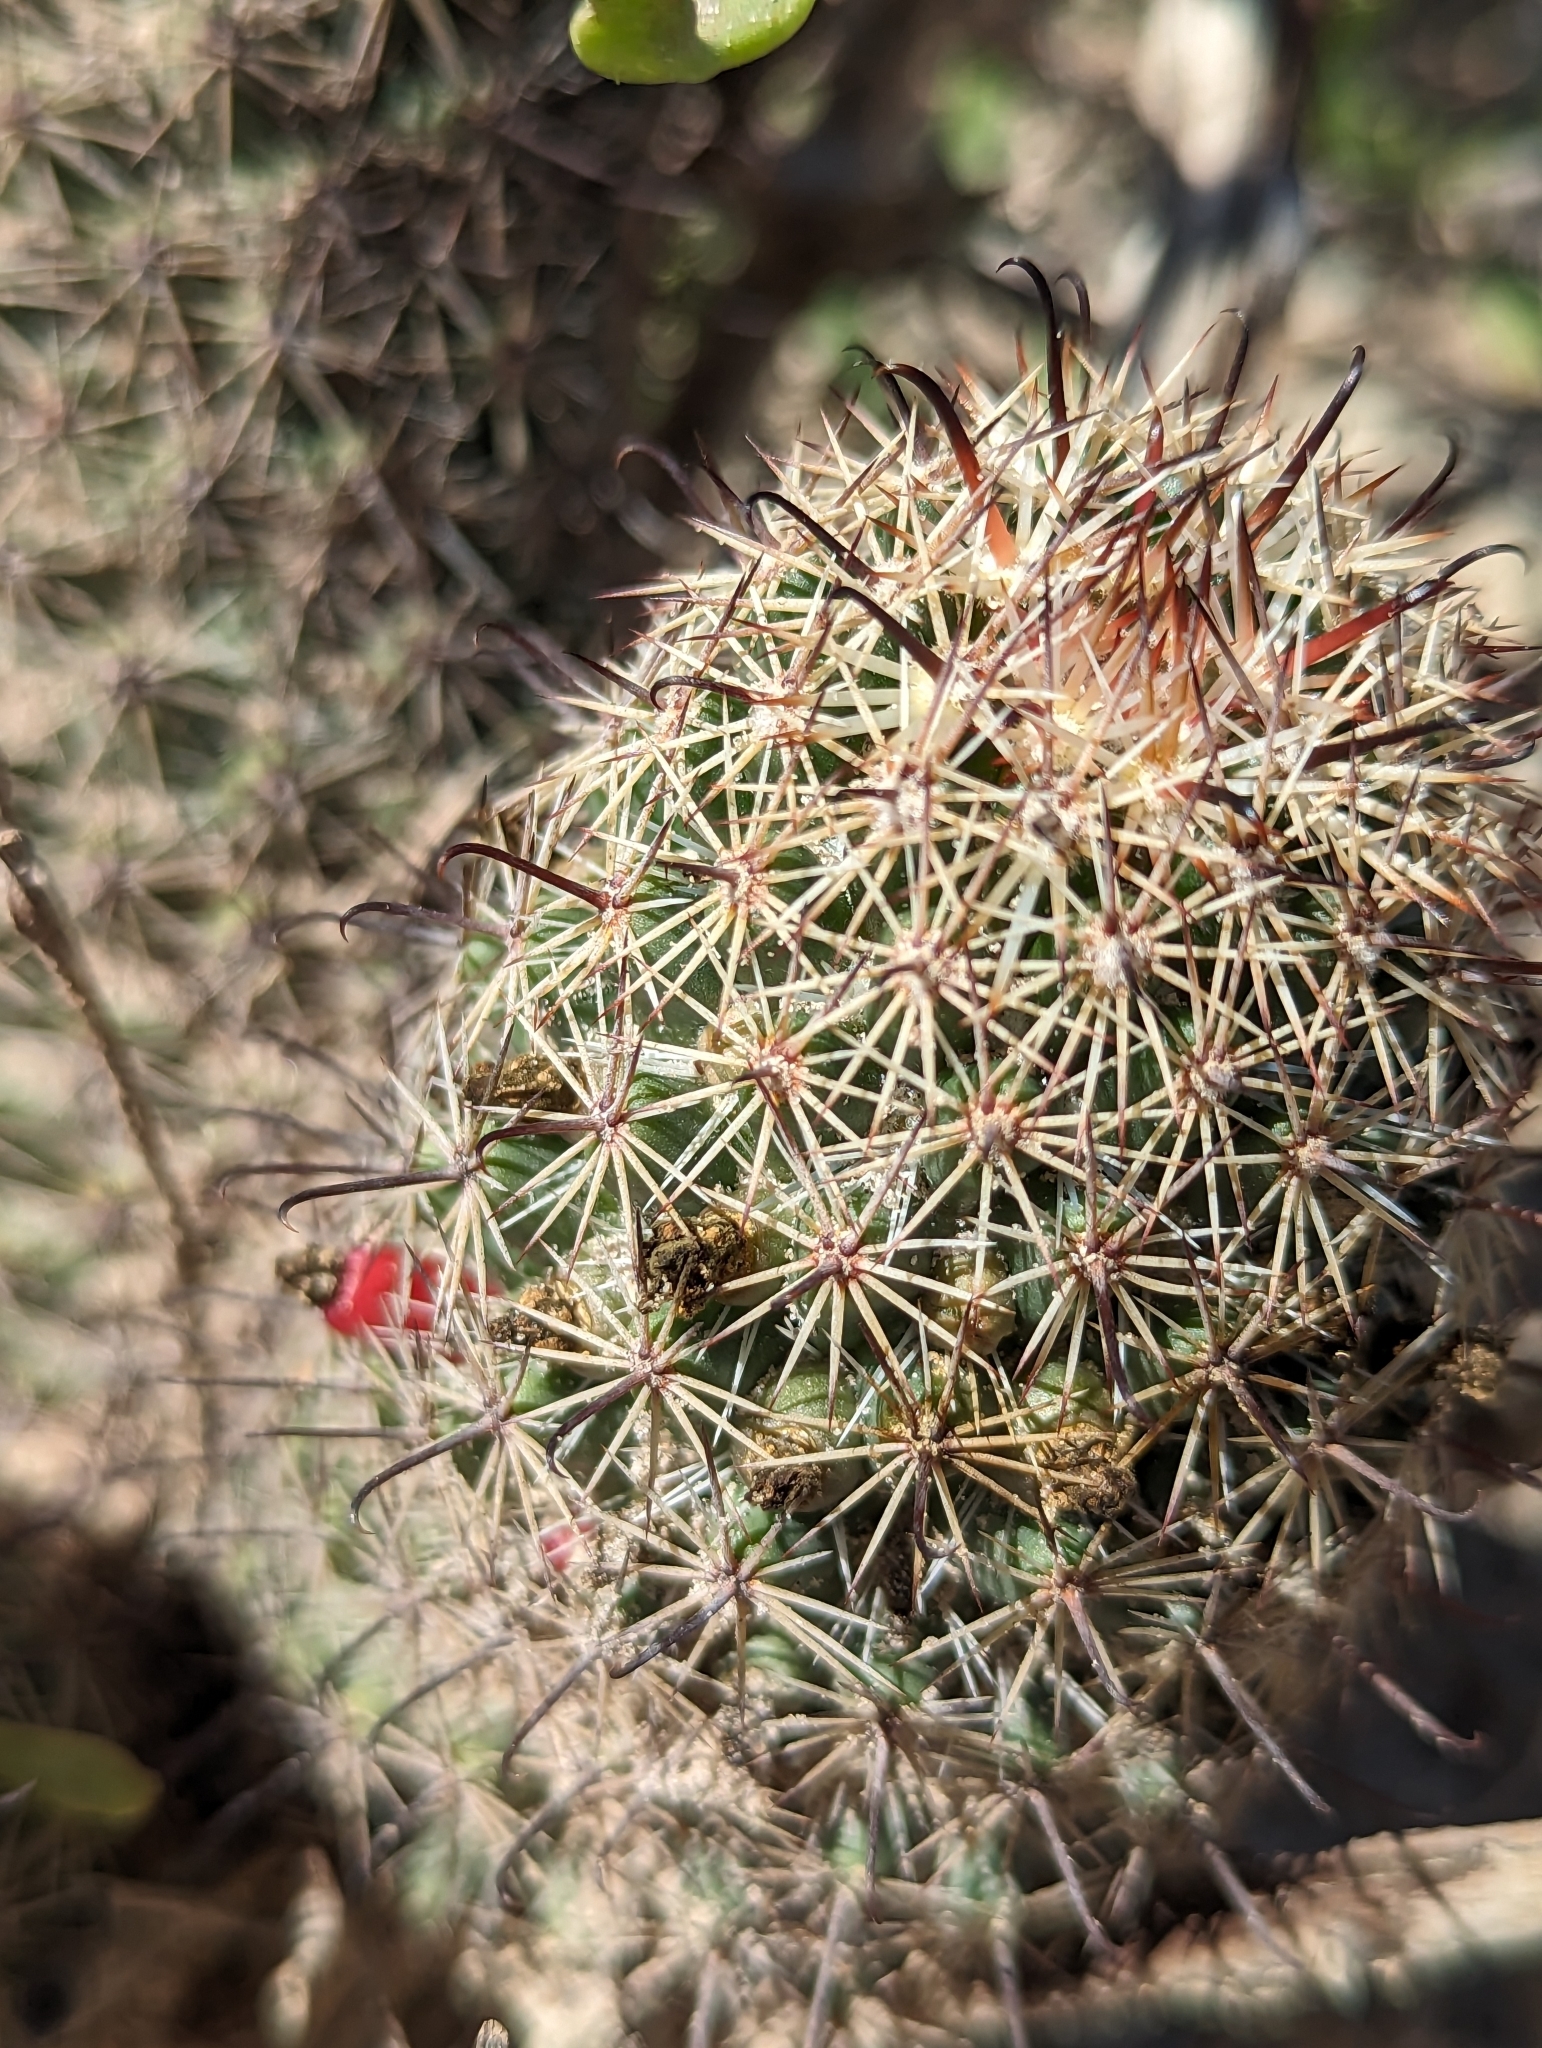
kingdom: Plantae
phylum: Tracheophyta
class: Magnoliopsida
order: Caryophyllales
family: Cactaceae
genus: Cochemiea
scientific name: Cochemiea dioica
